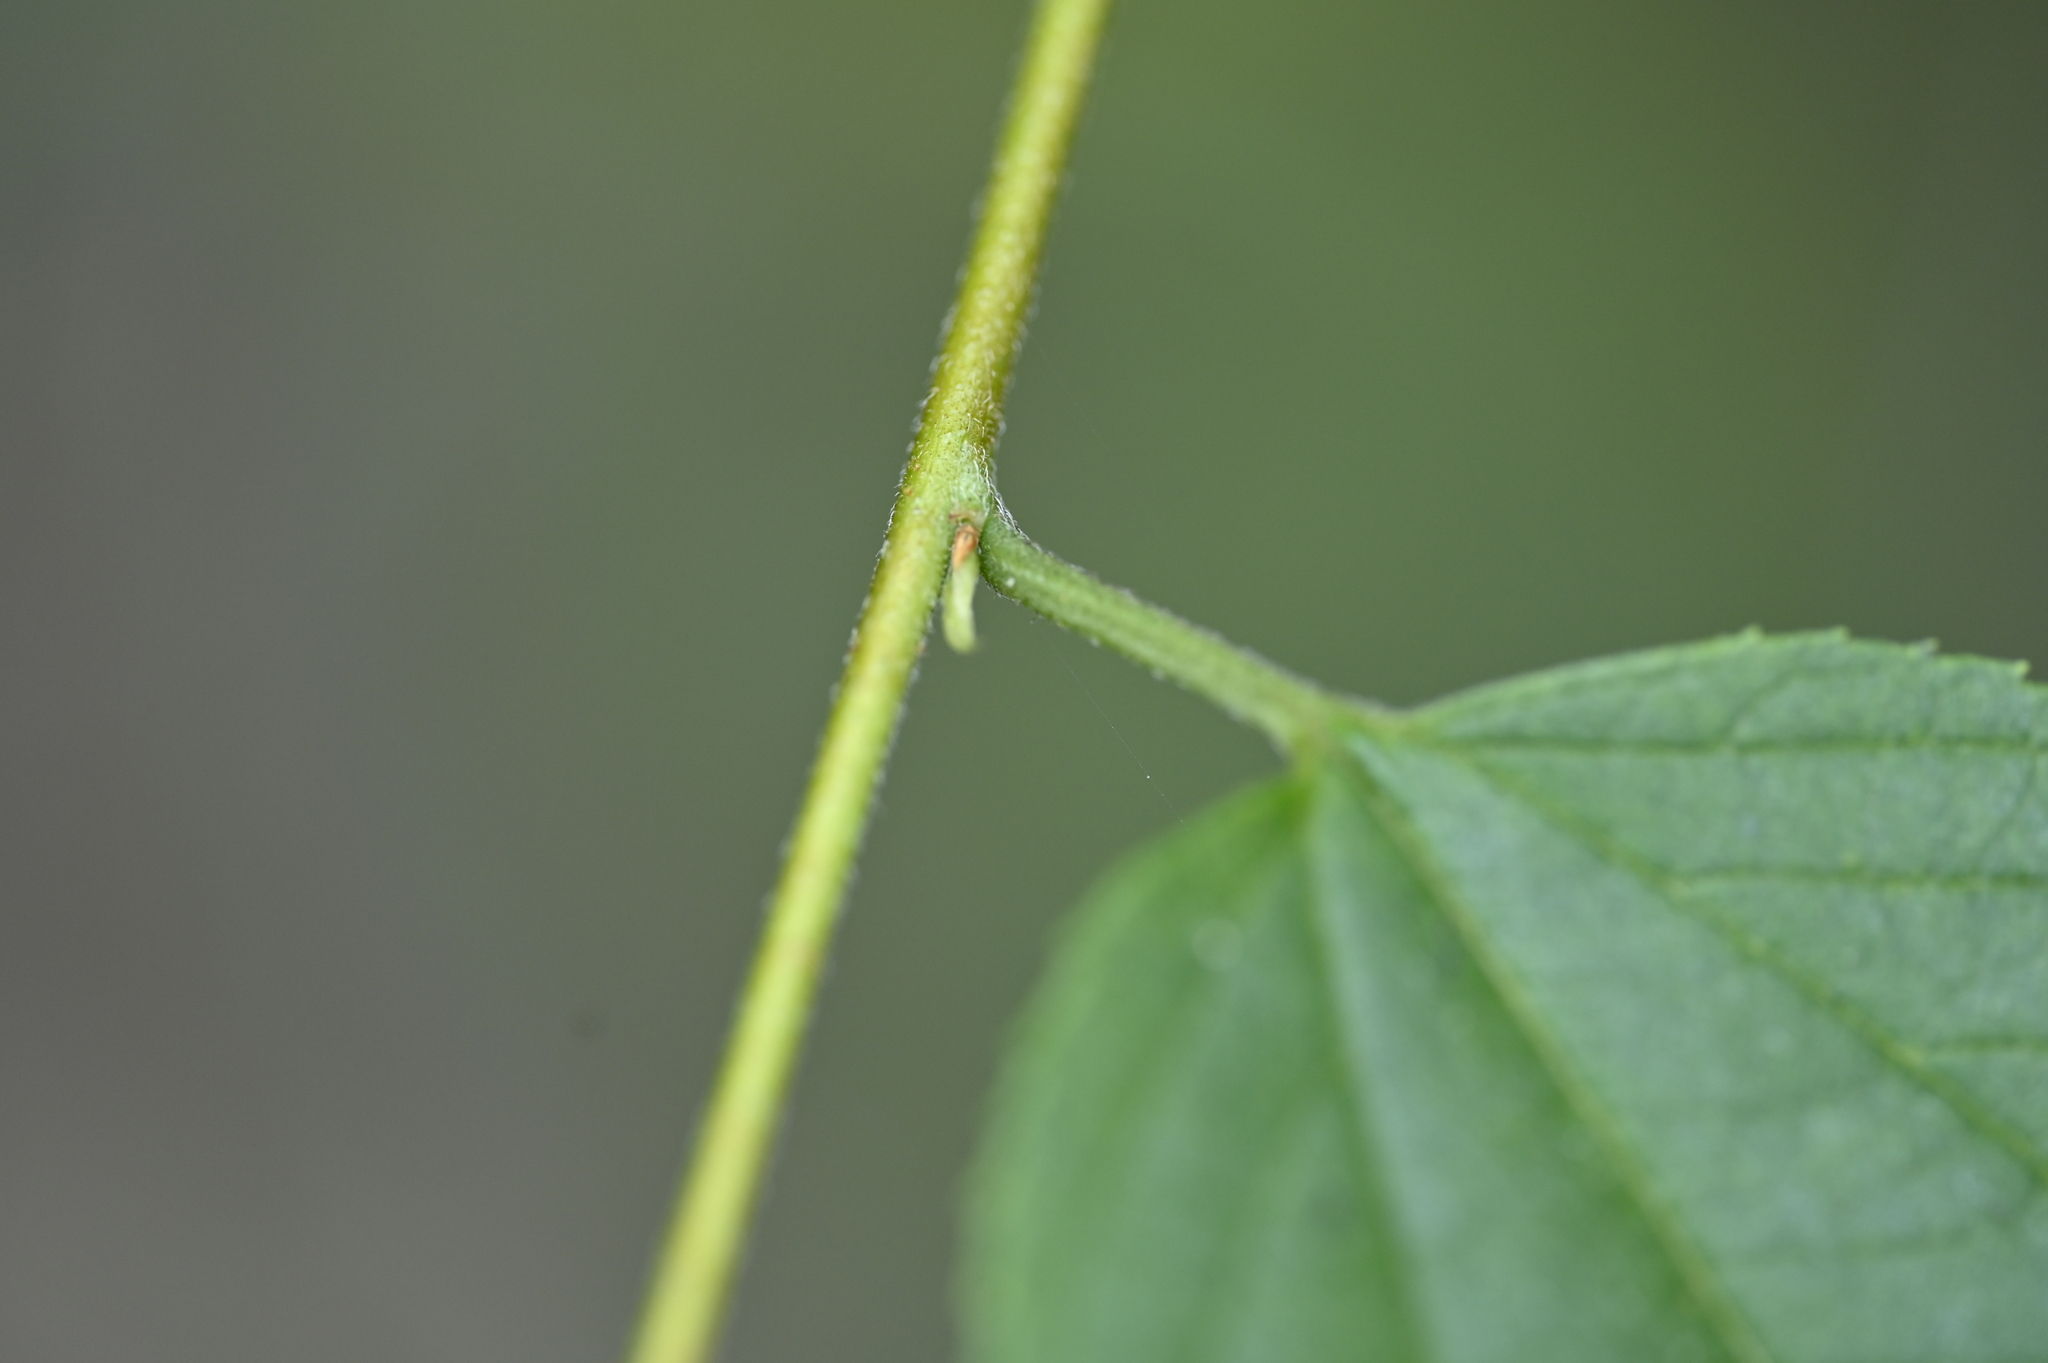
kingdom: Plantae
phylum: Tracheophyta
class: Magnoliopsida
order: Rosales
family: Cannabaceae
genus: Trema
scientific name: Trema cannabina
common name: Poison-peach
